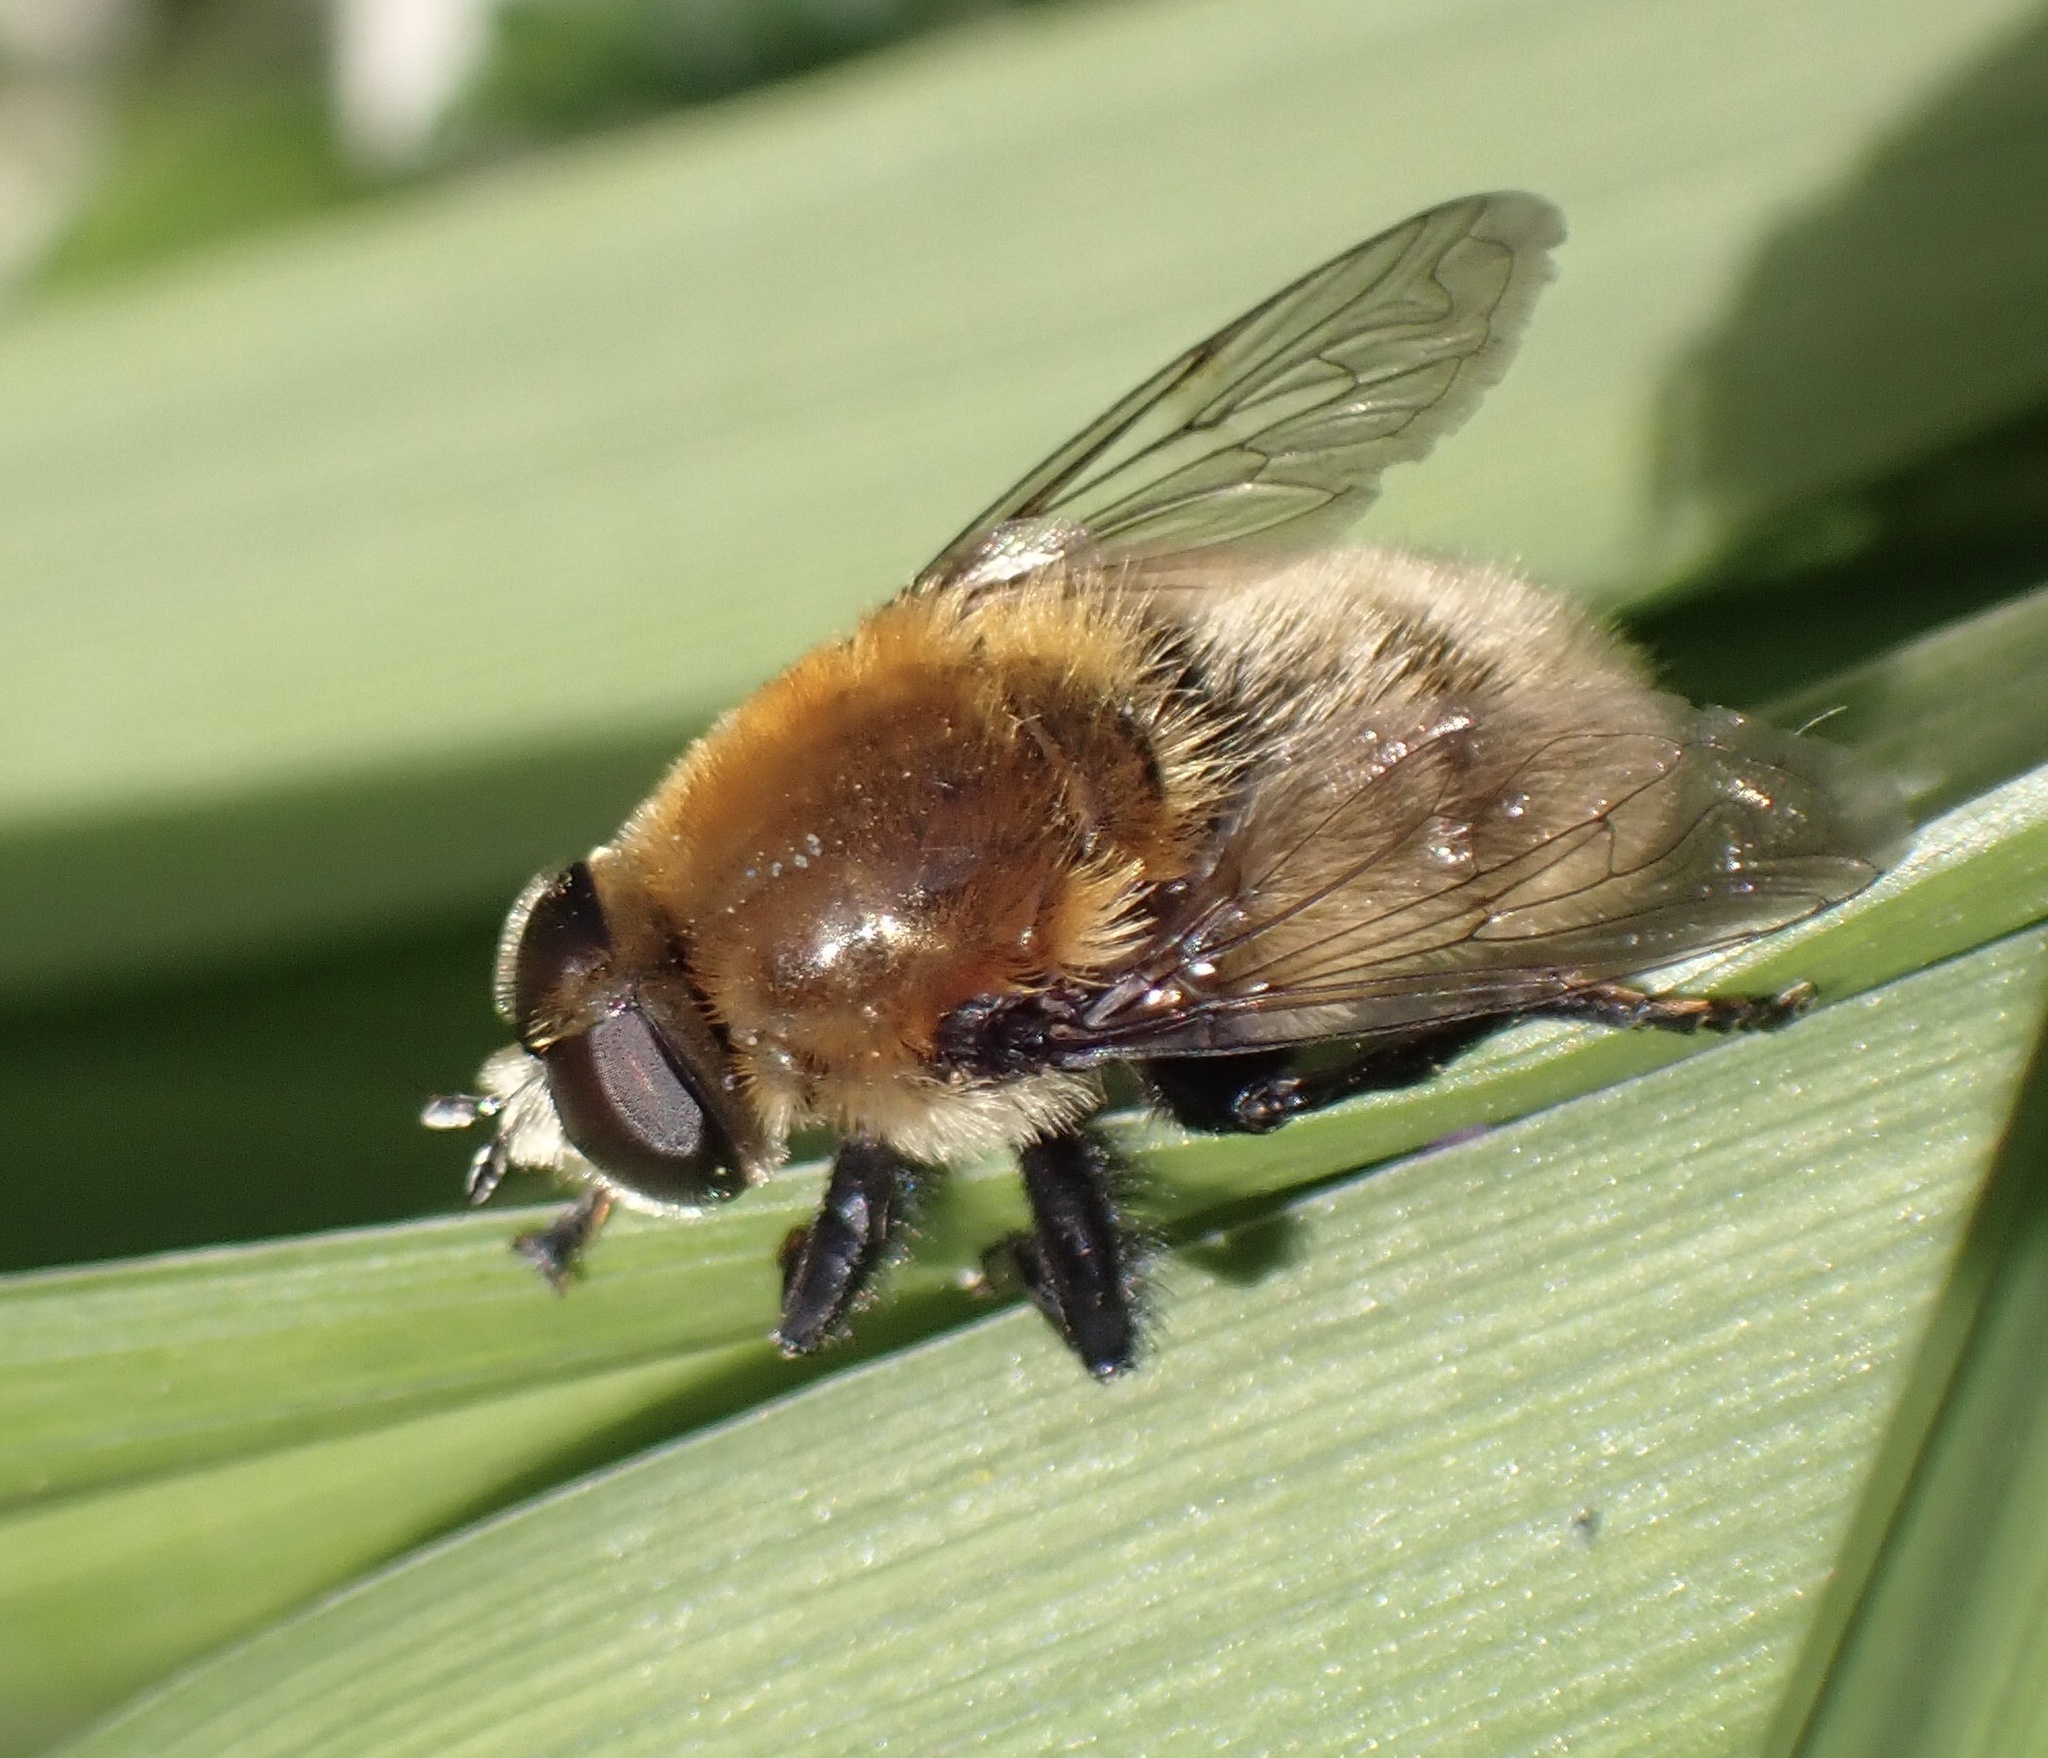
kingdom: Animalia
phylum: Arthropoda
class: Insecta
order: Diptera
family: Syrphidae
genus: Merodon
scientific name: Merodon equestris
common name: Greater bulb-fly
